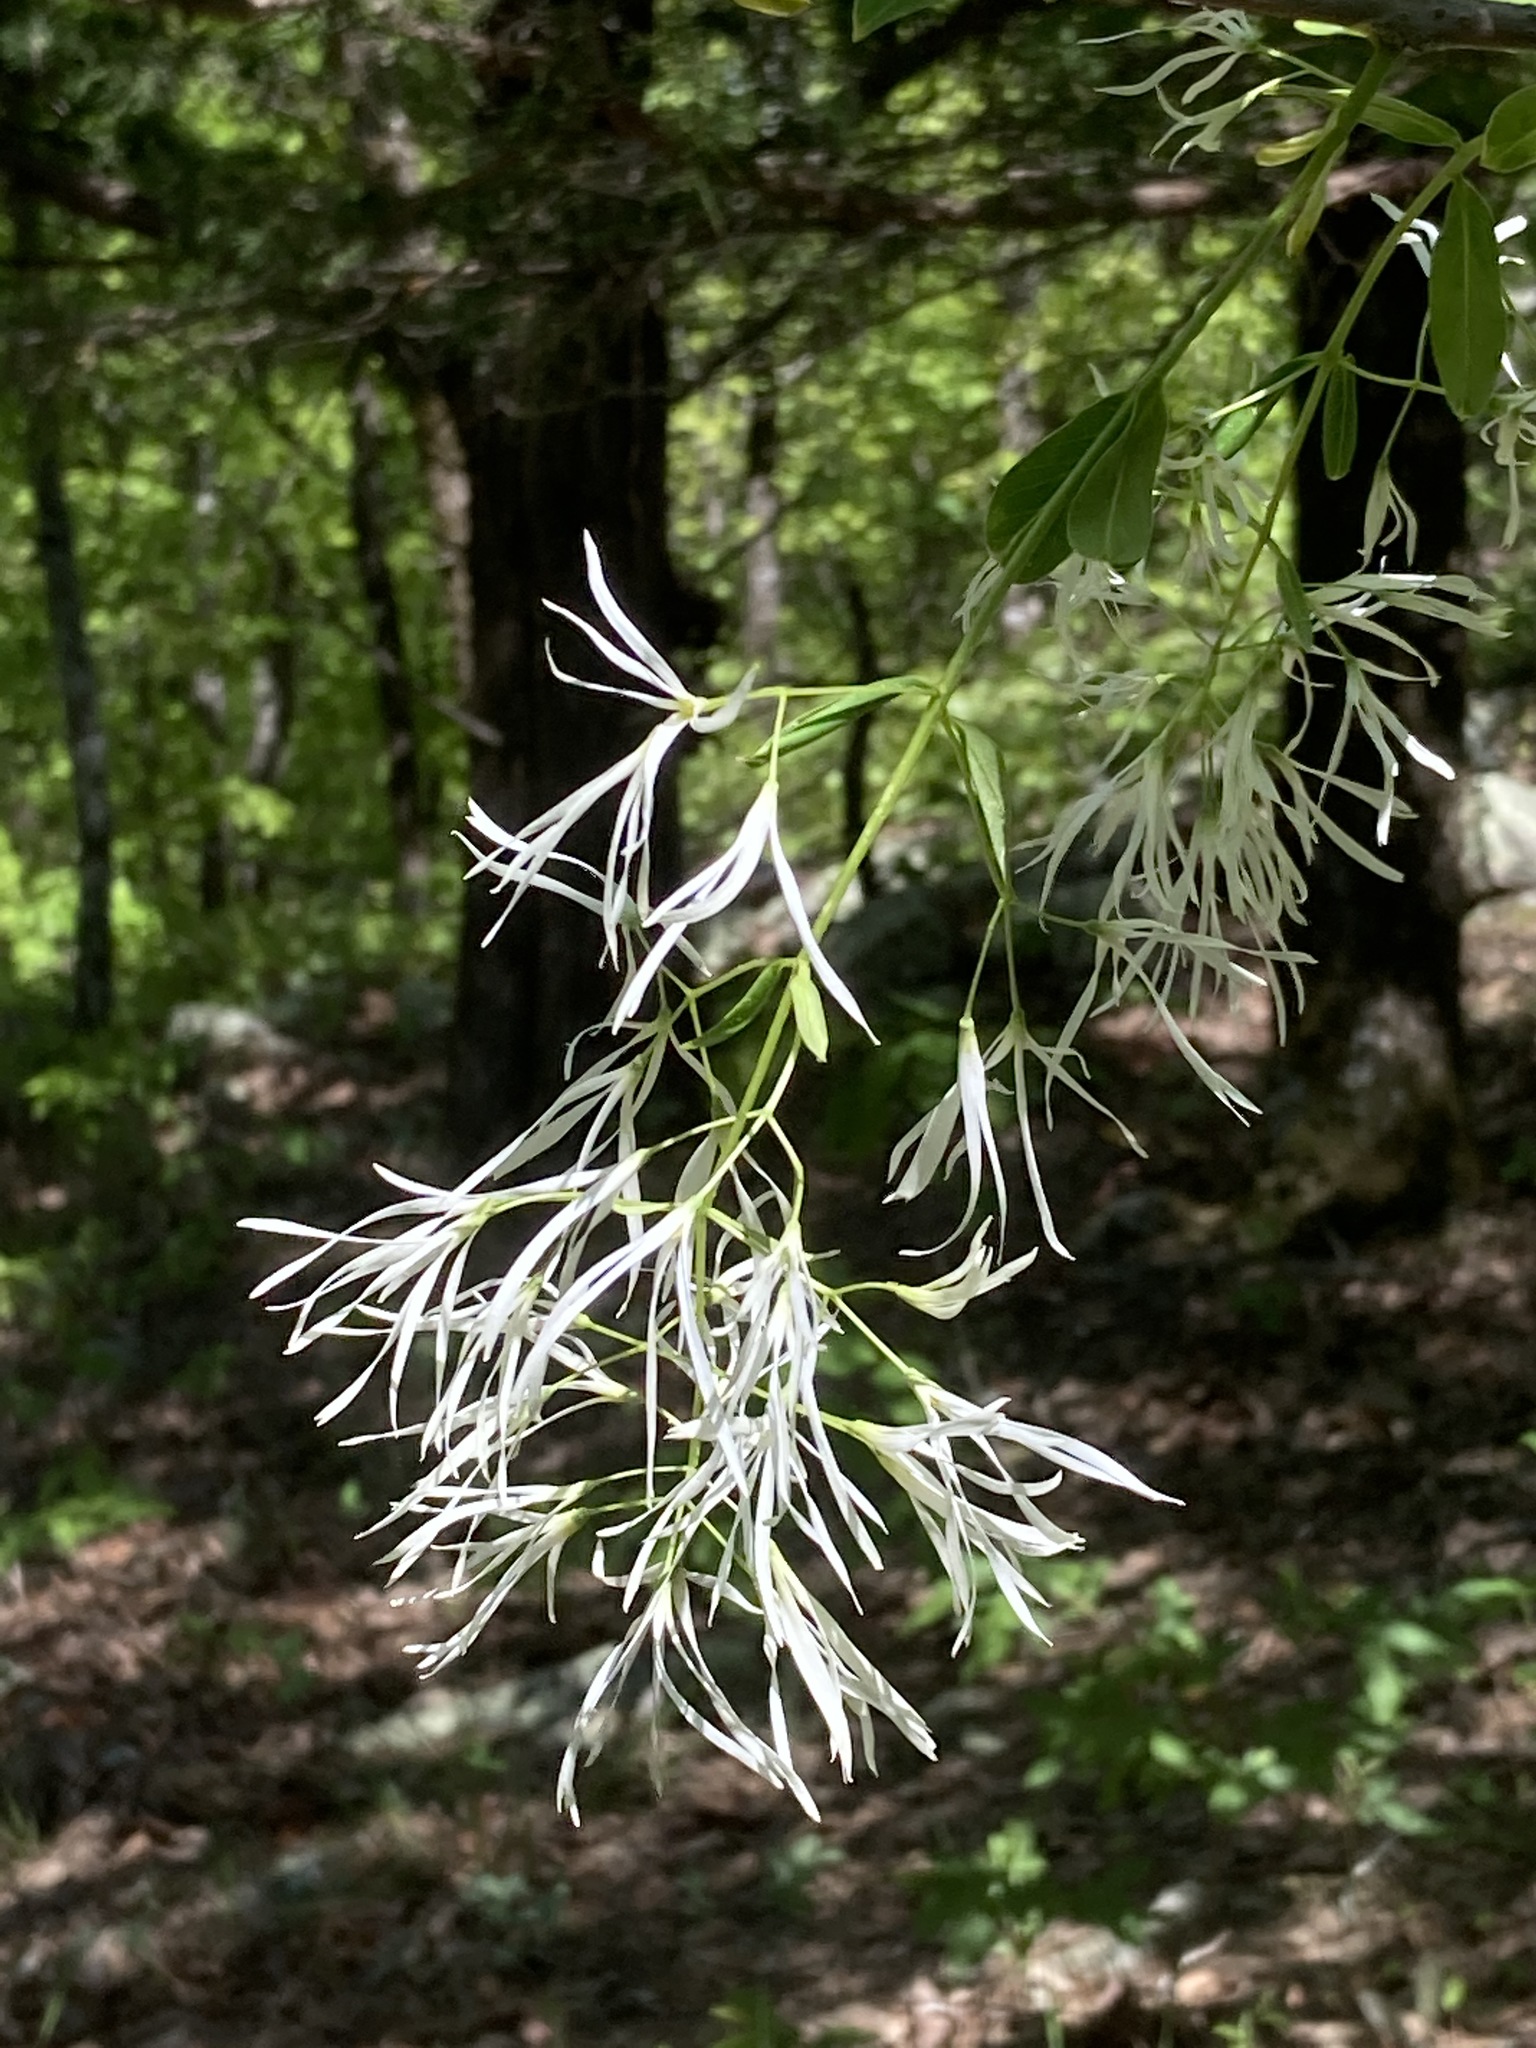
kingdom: Plantae
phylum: Tracheophyta
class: Magnoliopsida
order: Lamiales
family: Oleaceae
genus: Chionanthus
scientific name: Chionanthus virginicus
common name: American fringetree
